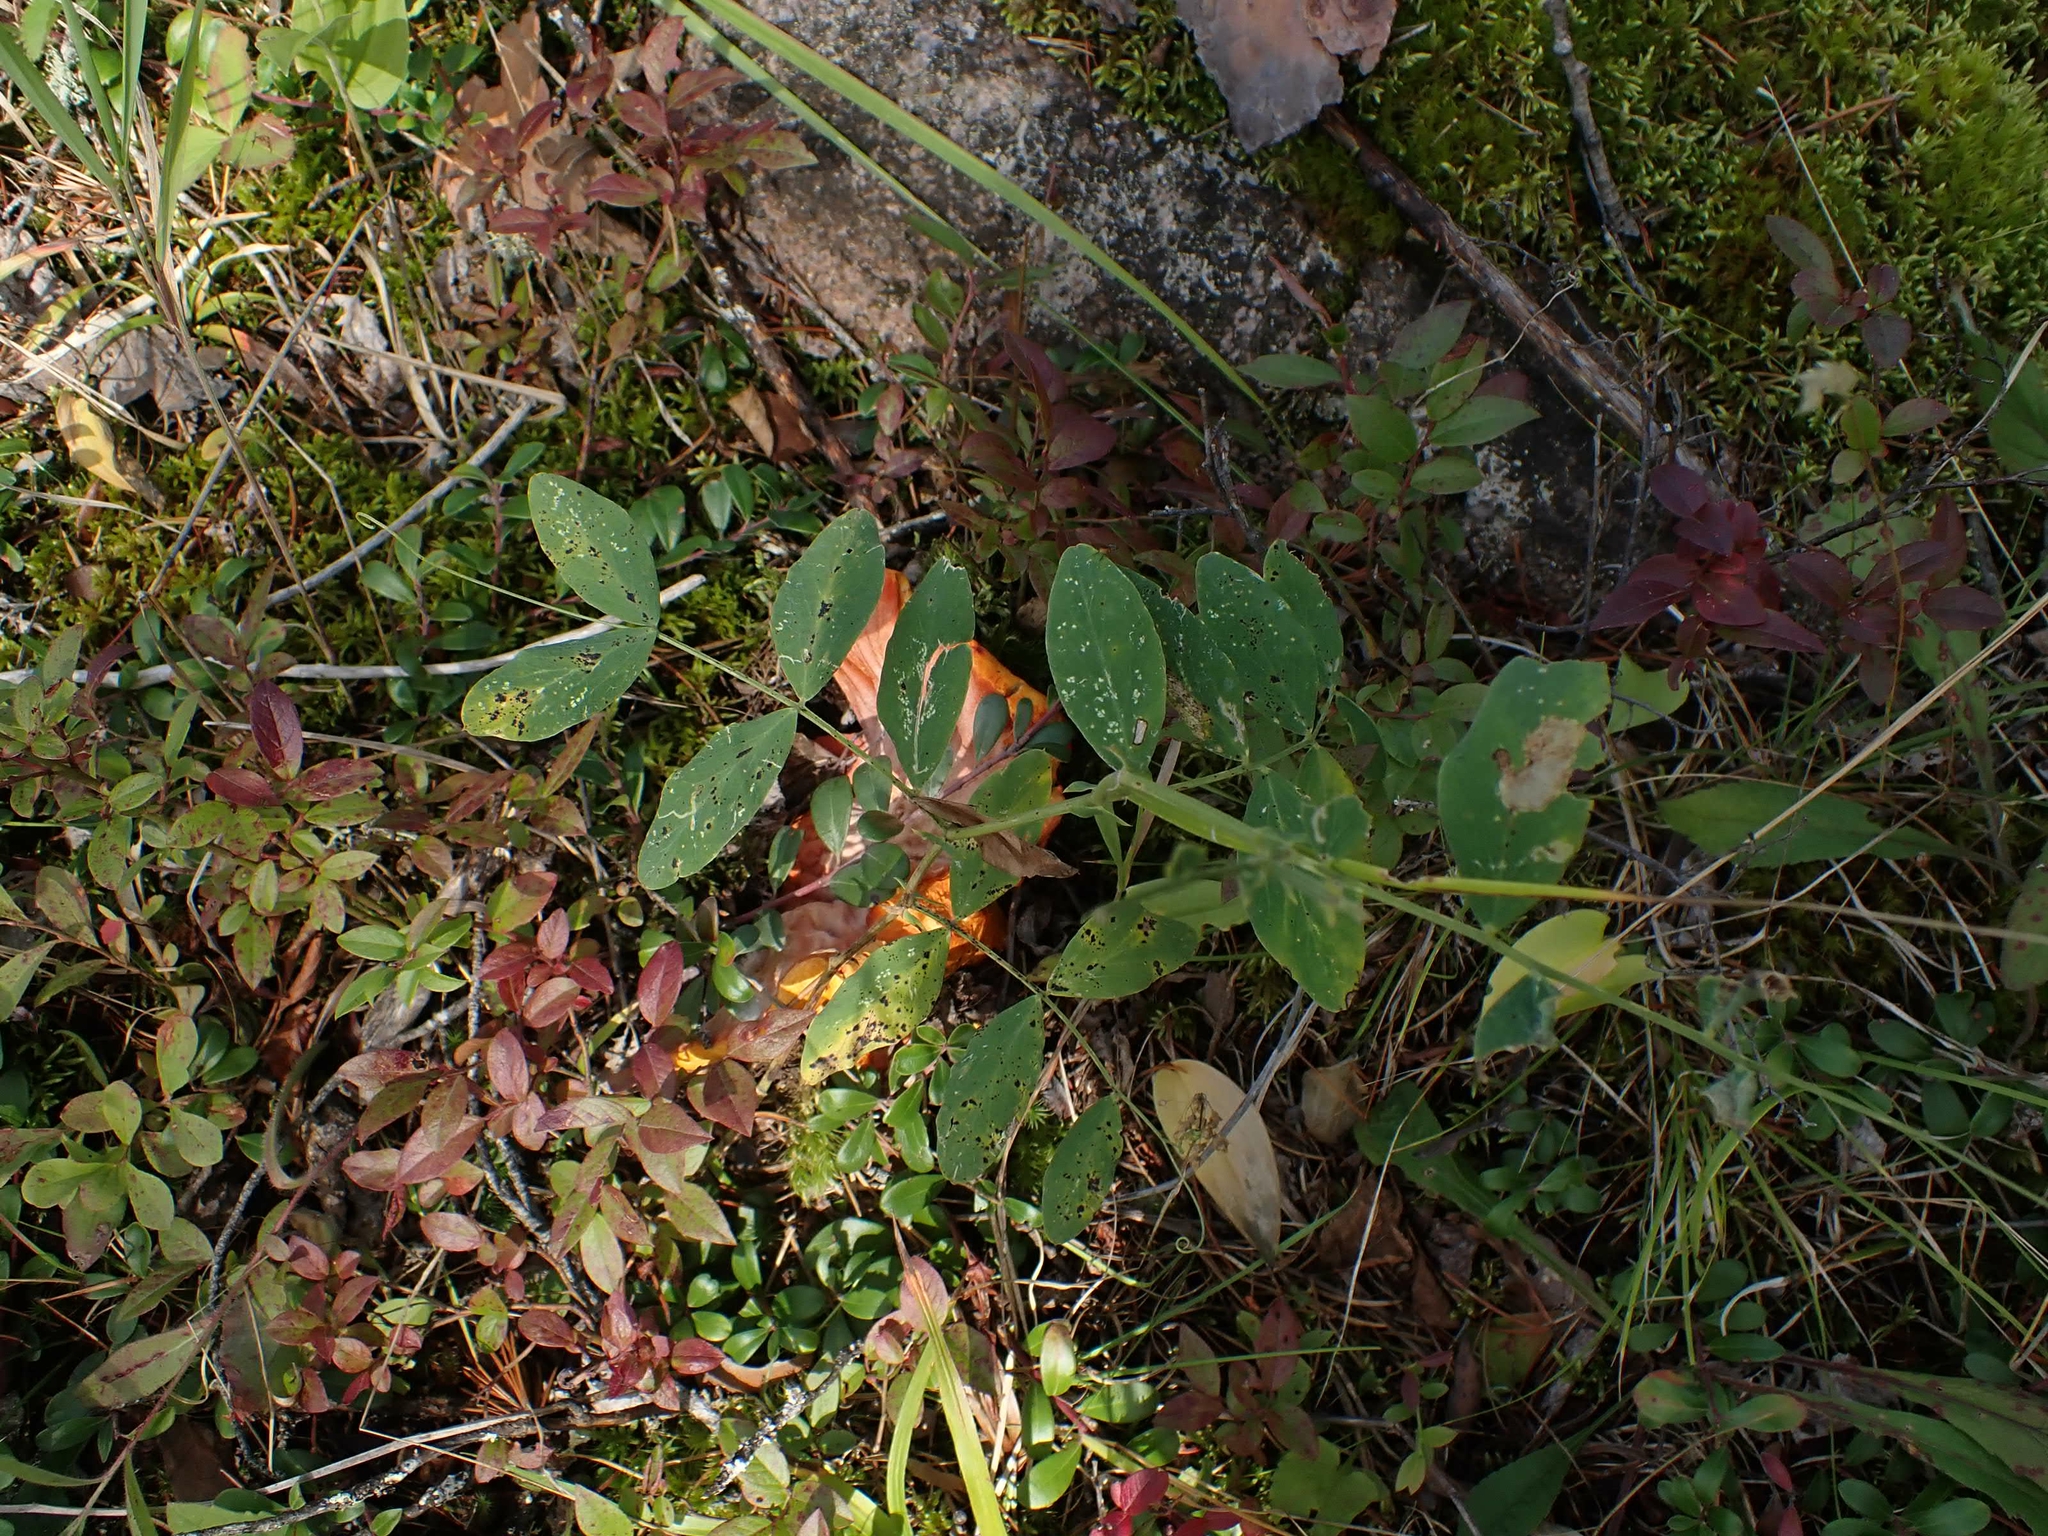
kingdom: Plantae
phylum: Tracheophyta
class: Magnoliopsida
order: Fabales
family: Fabaceae
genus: Lathyrus
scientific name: Lathyrus venosus
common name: Forest-pea
